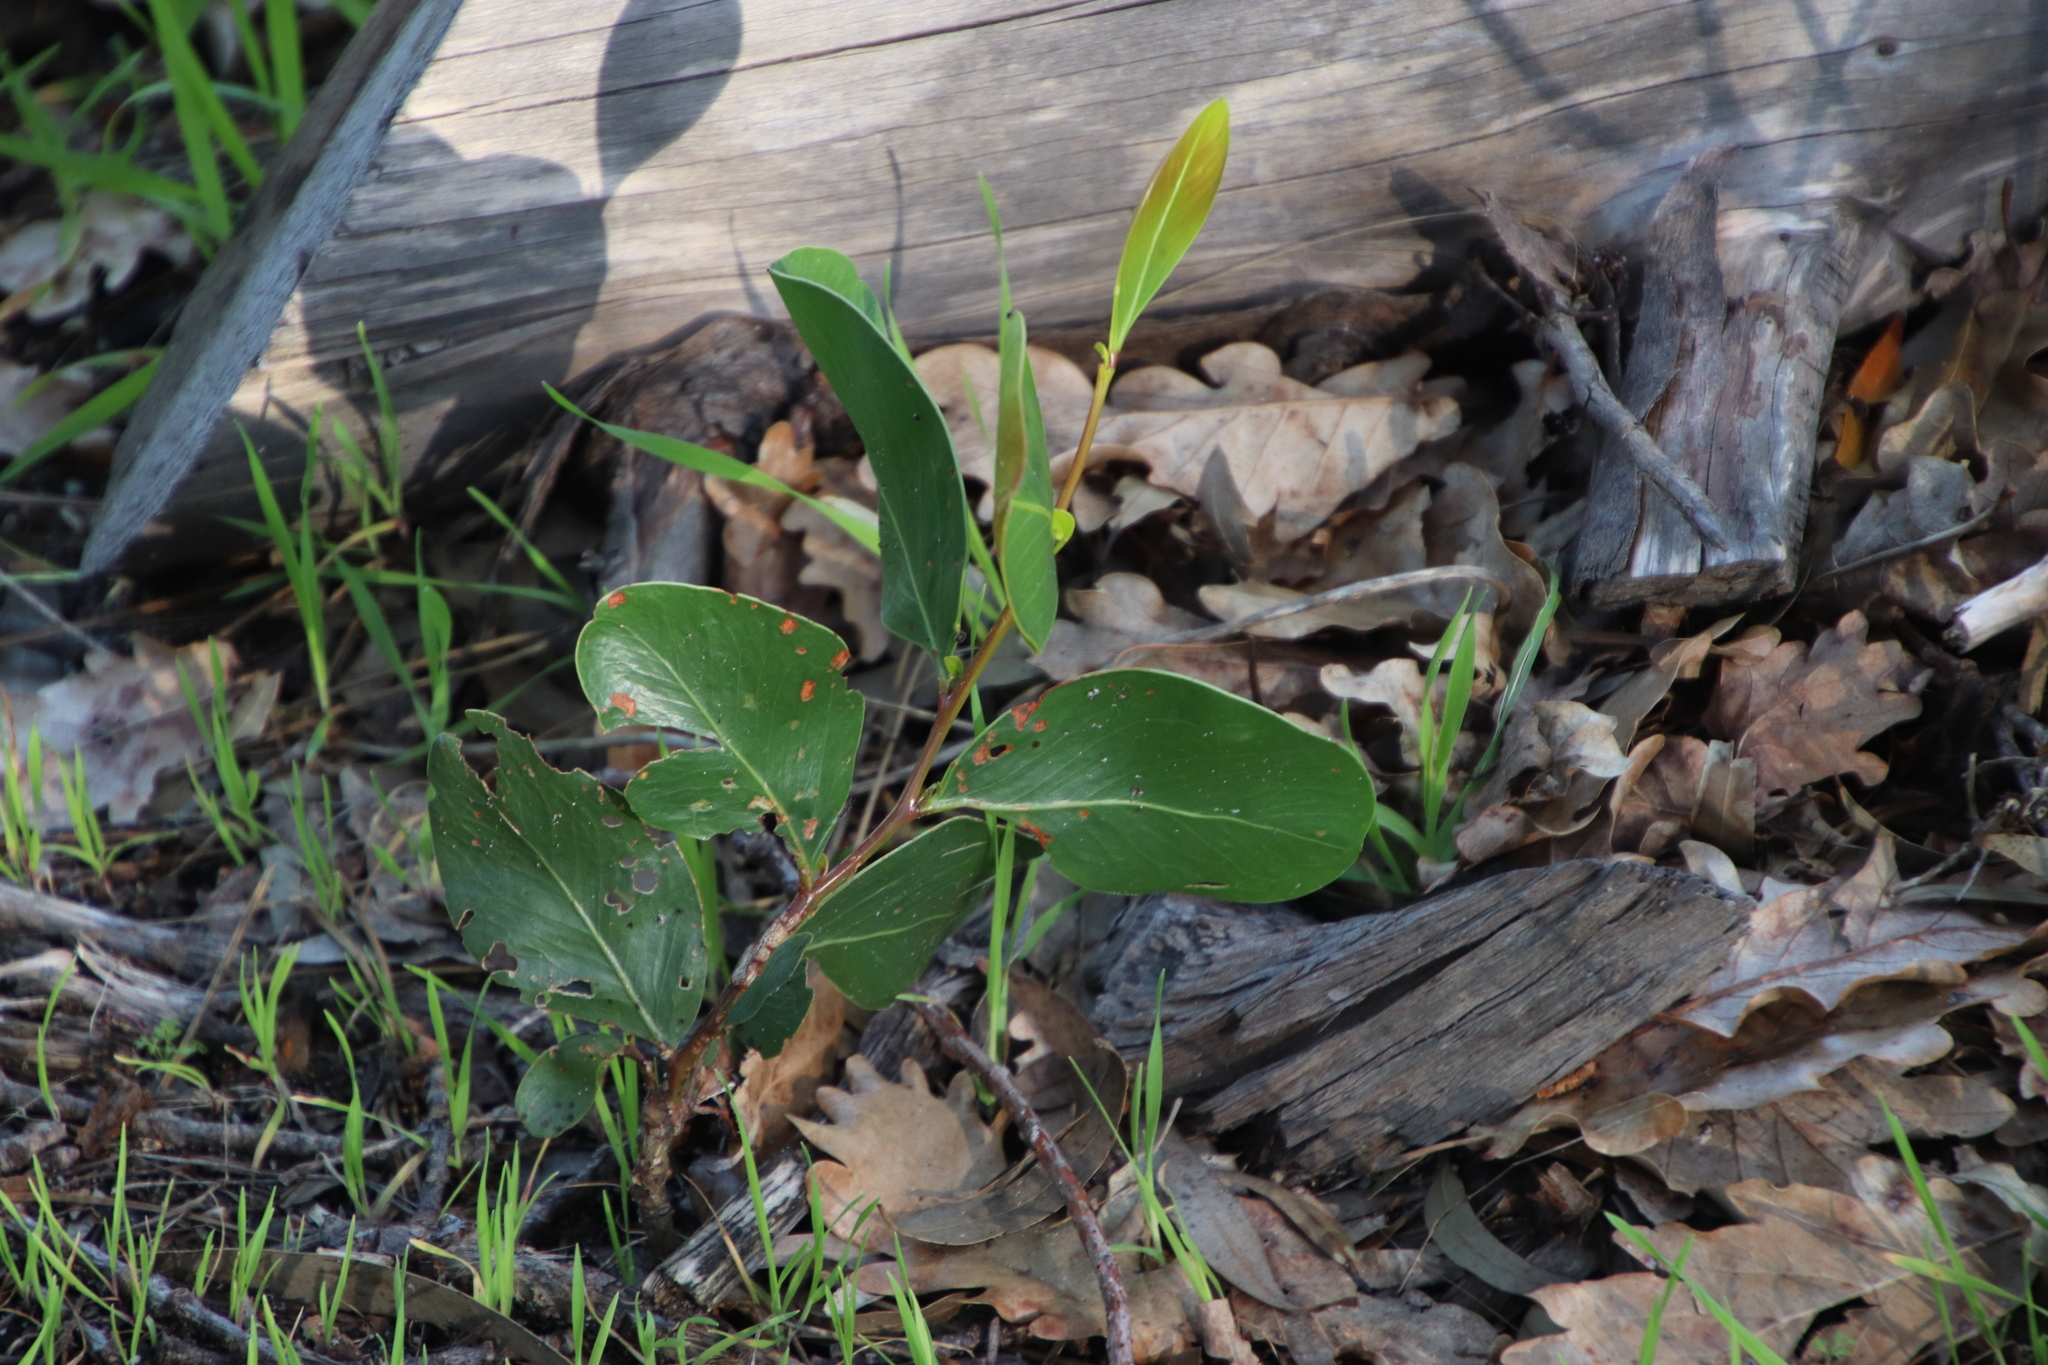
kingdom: Plantae
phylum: Tracheophyta
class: Magnoliopsida
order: Fabales
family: Fabaceae
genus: Acacia
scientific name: Acacia pycnantha
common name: Golden wattle
